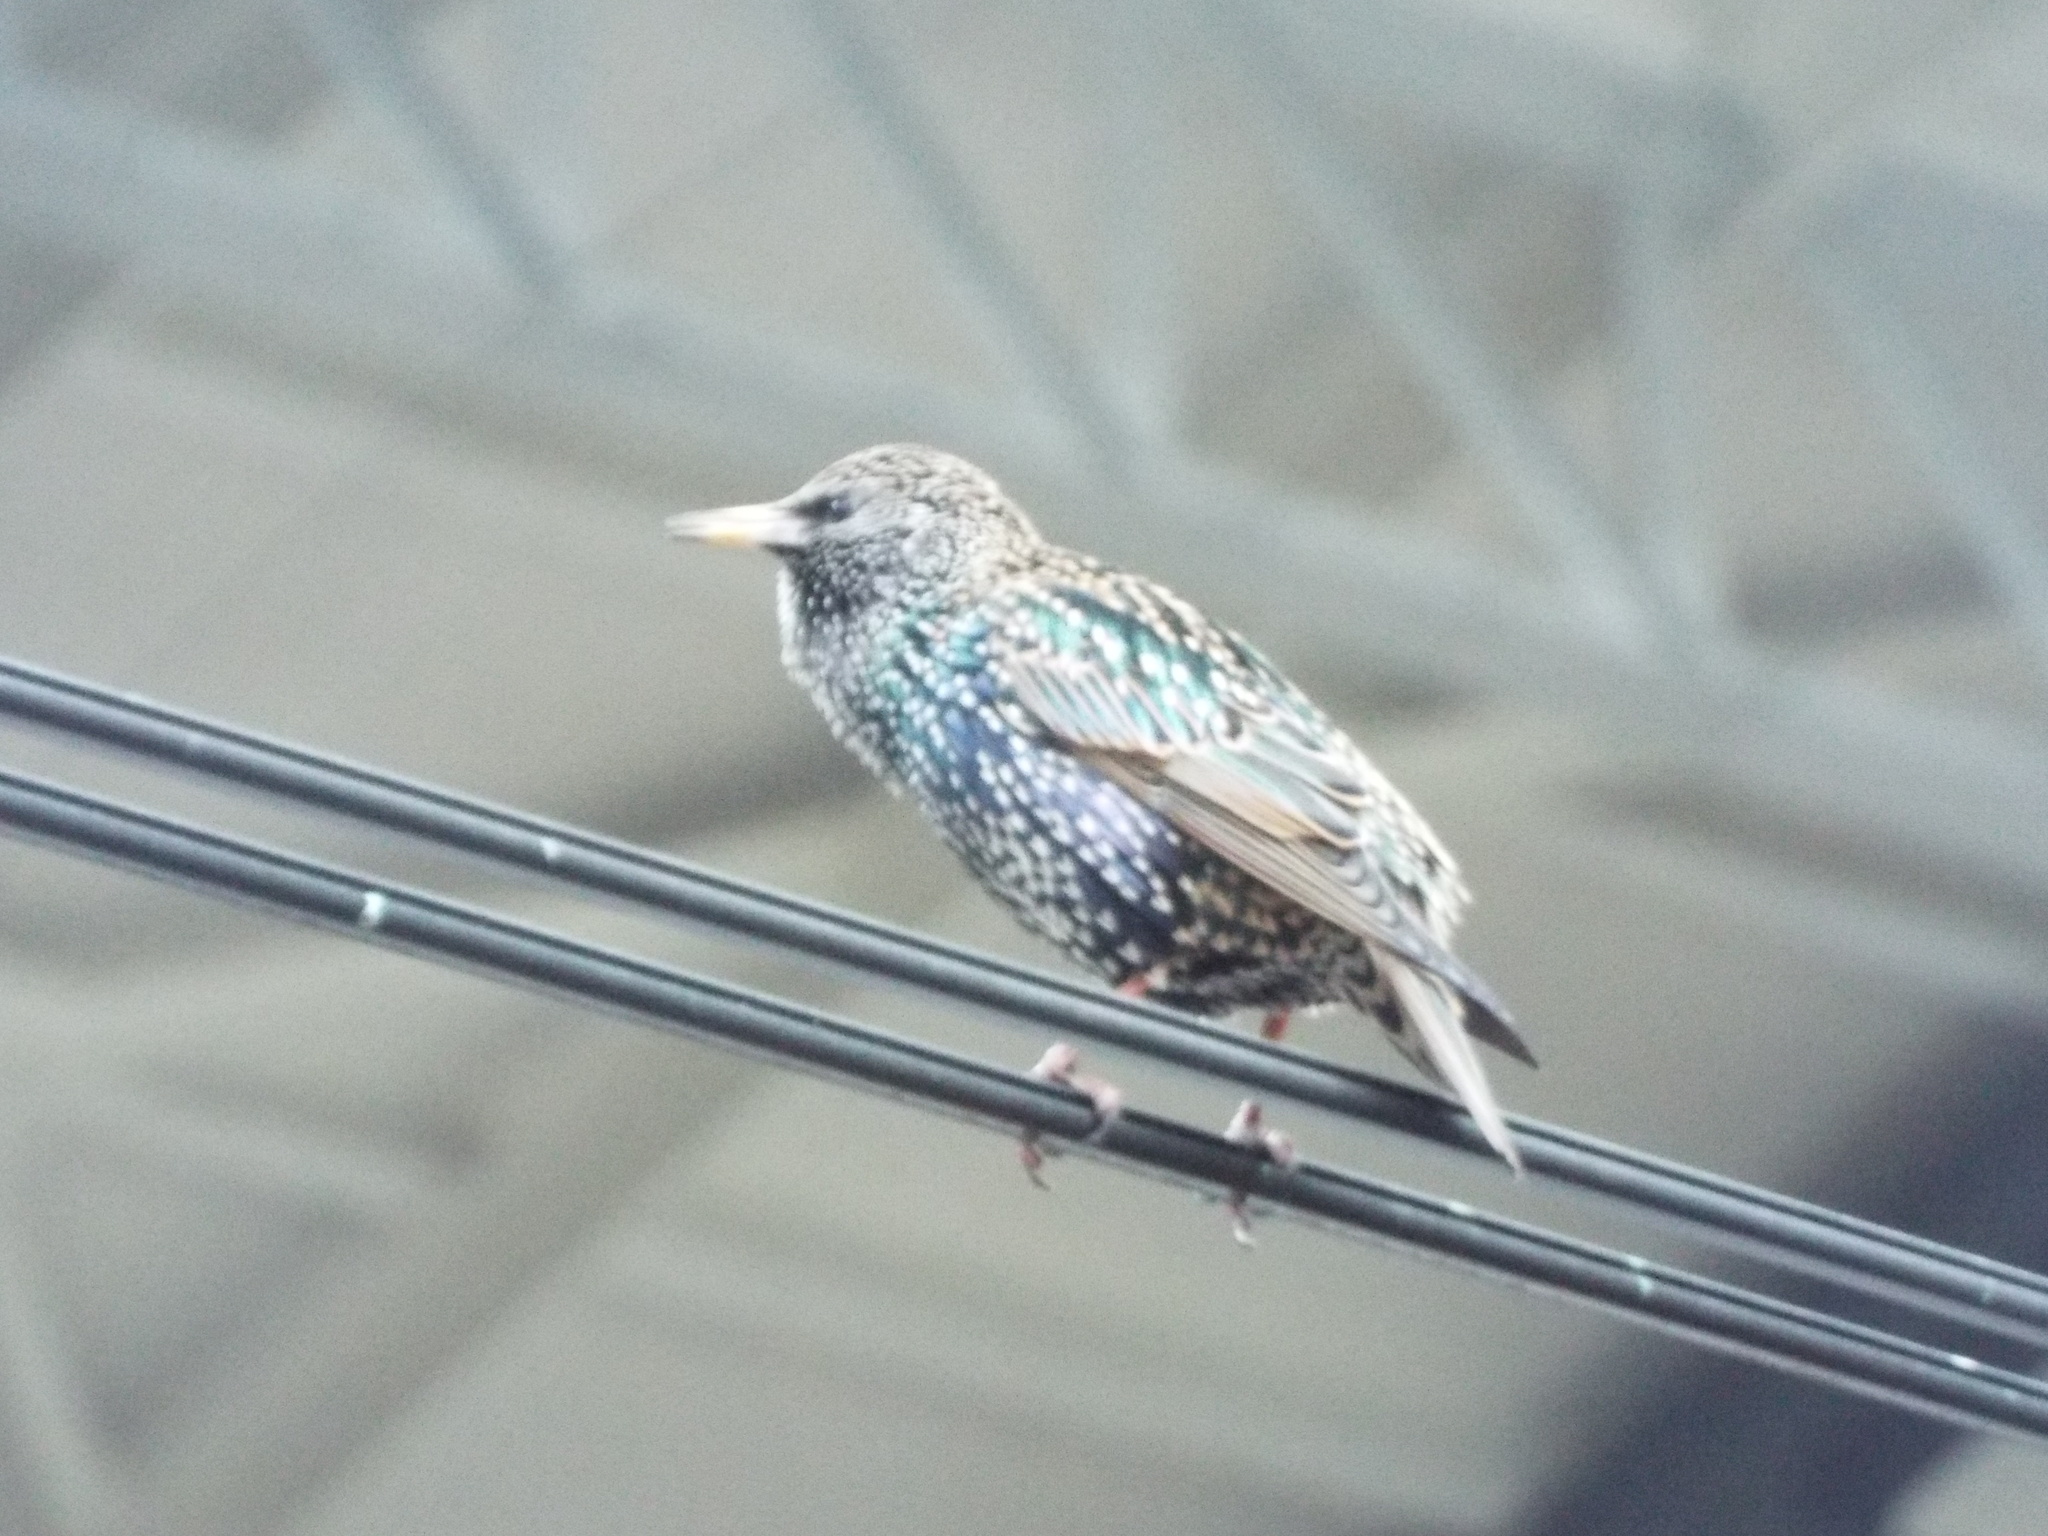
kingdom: Animalia
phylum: Chordata
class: Aves
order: Passeriformes
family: Sturnidae
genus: Sturnus
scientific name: Sturnus vulgaris
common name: Common starling
